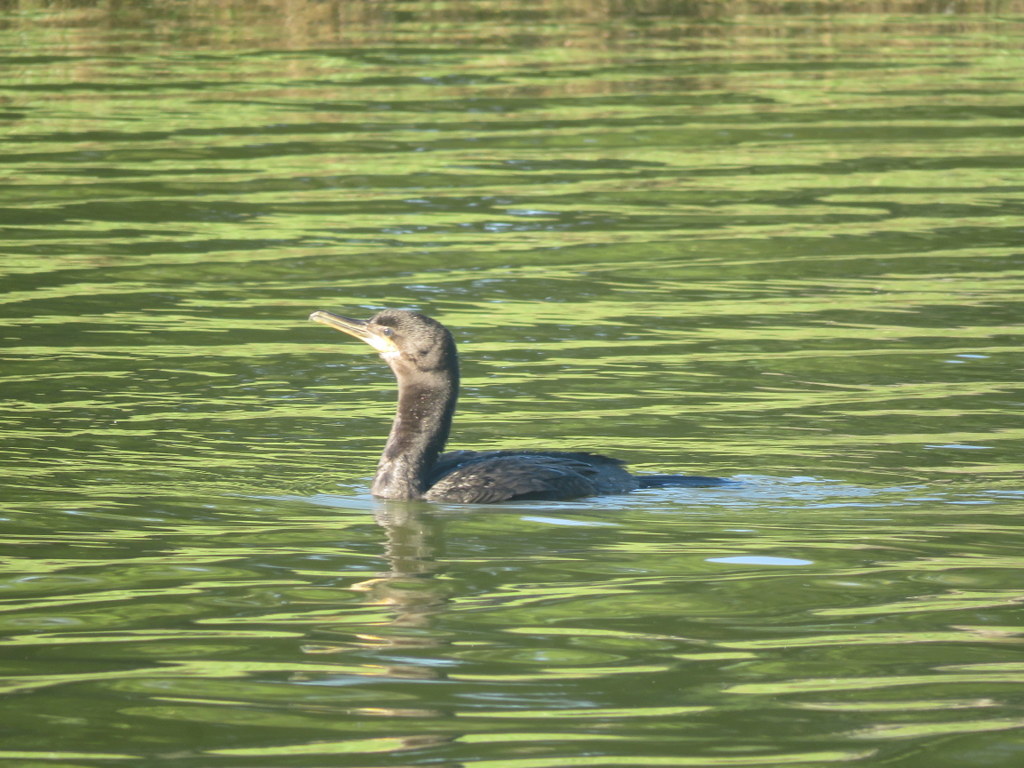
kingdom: Animalia
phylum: Chordata
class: Aves
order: Suliformes
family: Phalacrocoracidae
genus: Phalacrocorax
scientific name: Phalacrocorax brasilianus
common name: Neotropic cormorant
